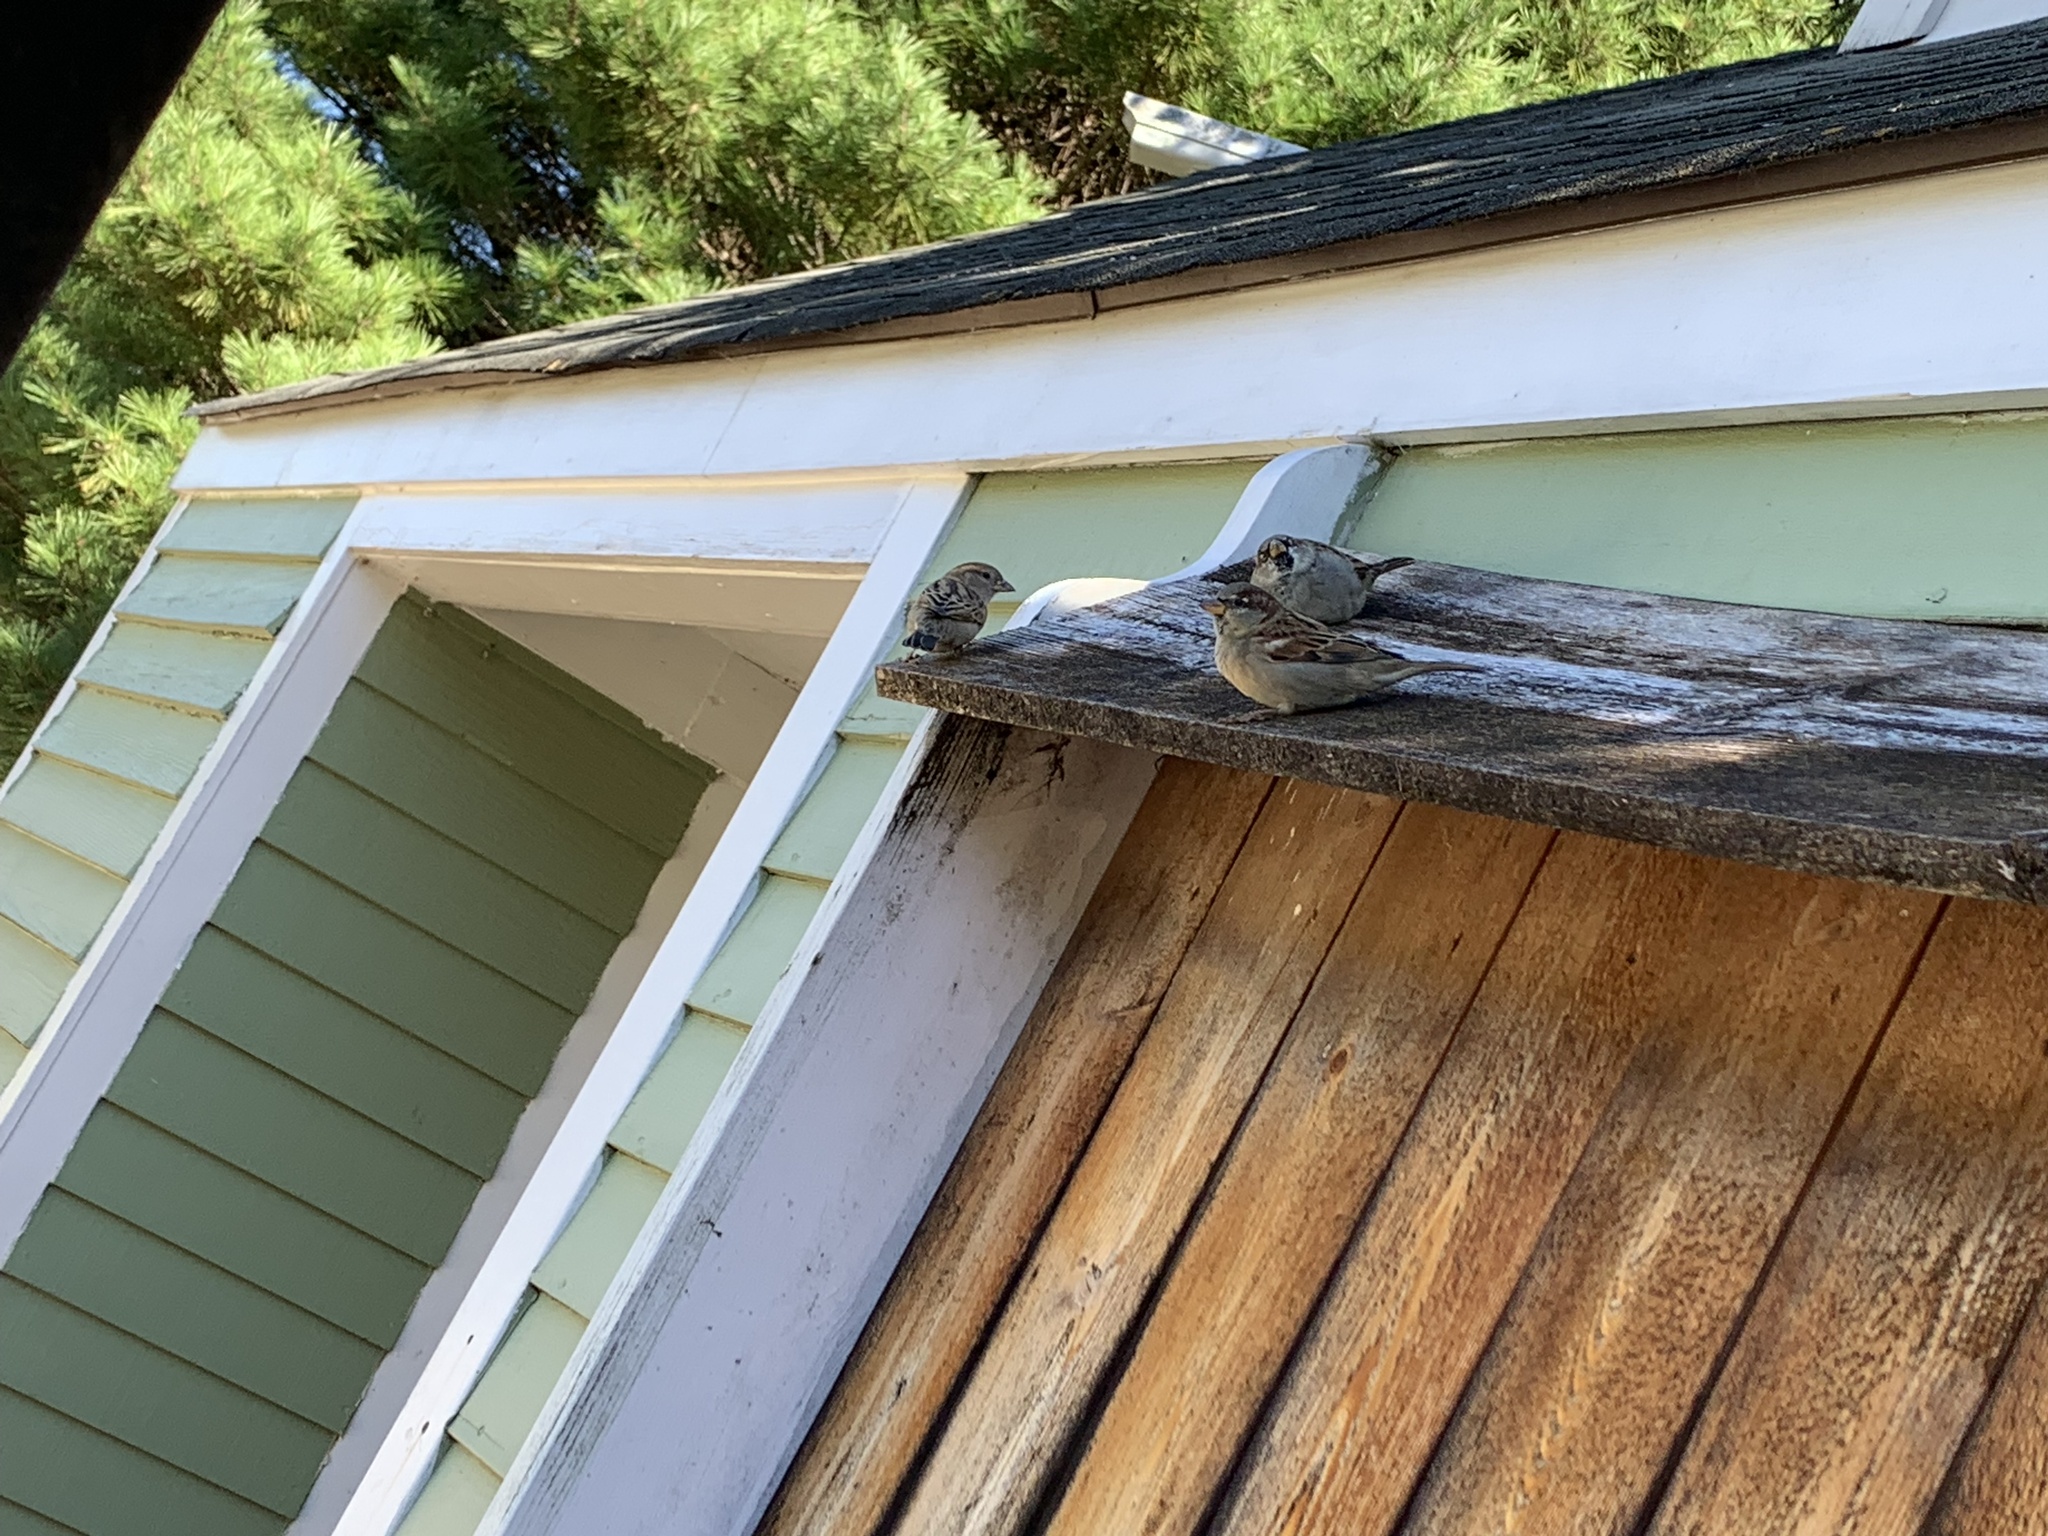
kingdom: Animalia
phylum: Chordata
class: Aves
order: Passeriformes
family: Passeridae
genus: Passer
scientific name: Passer domesticus
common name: House sparrow
